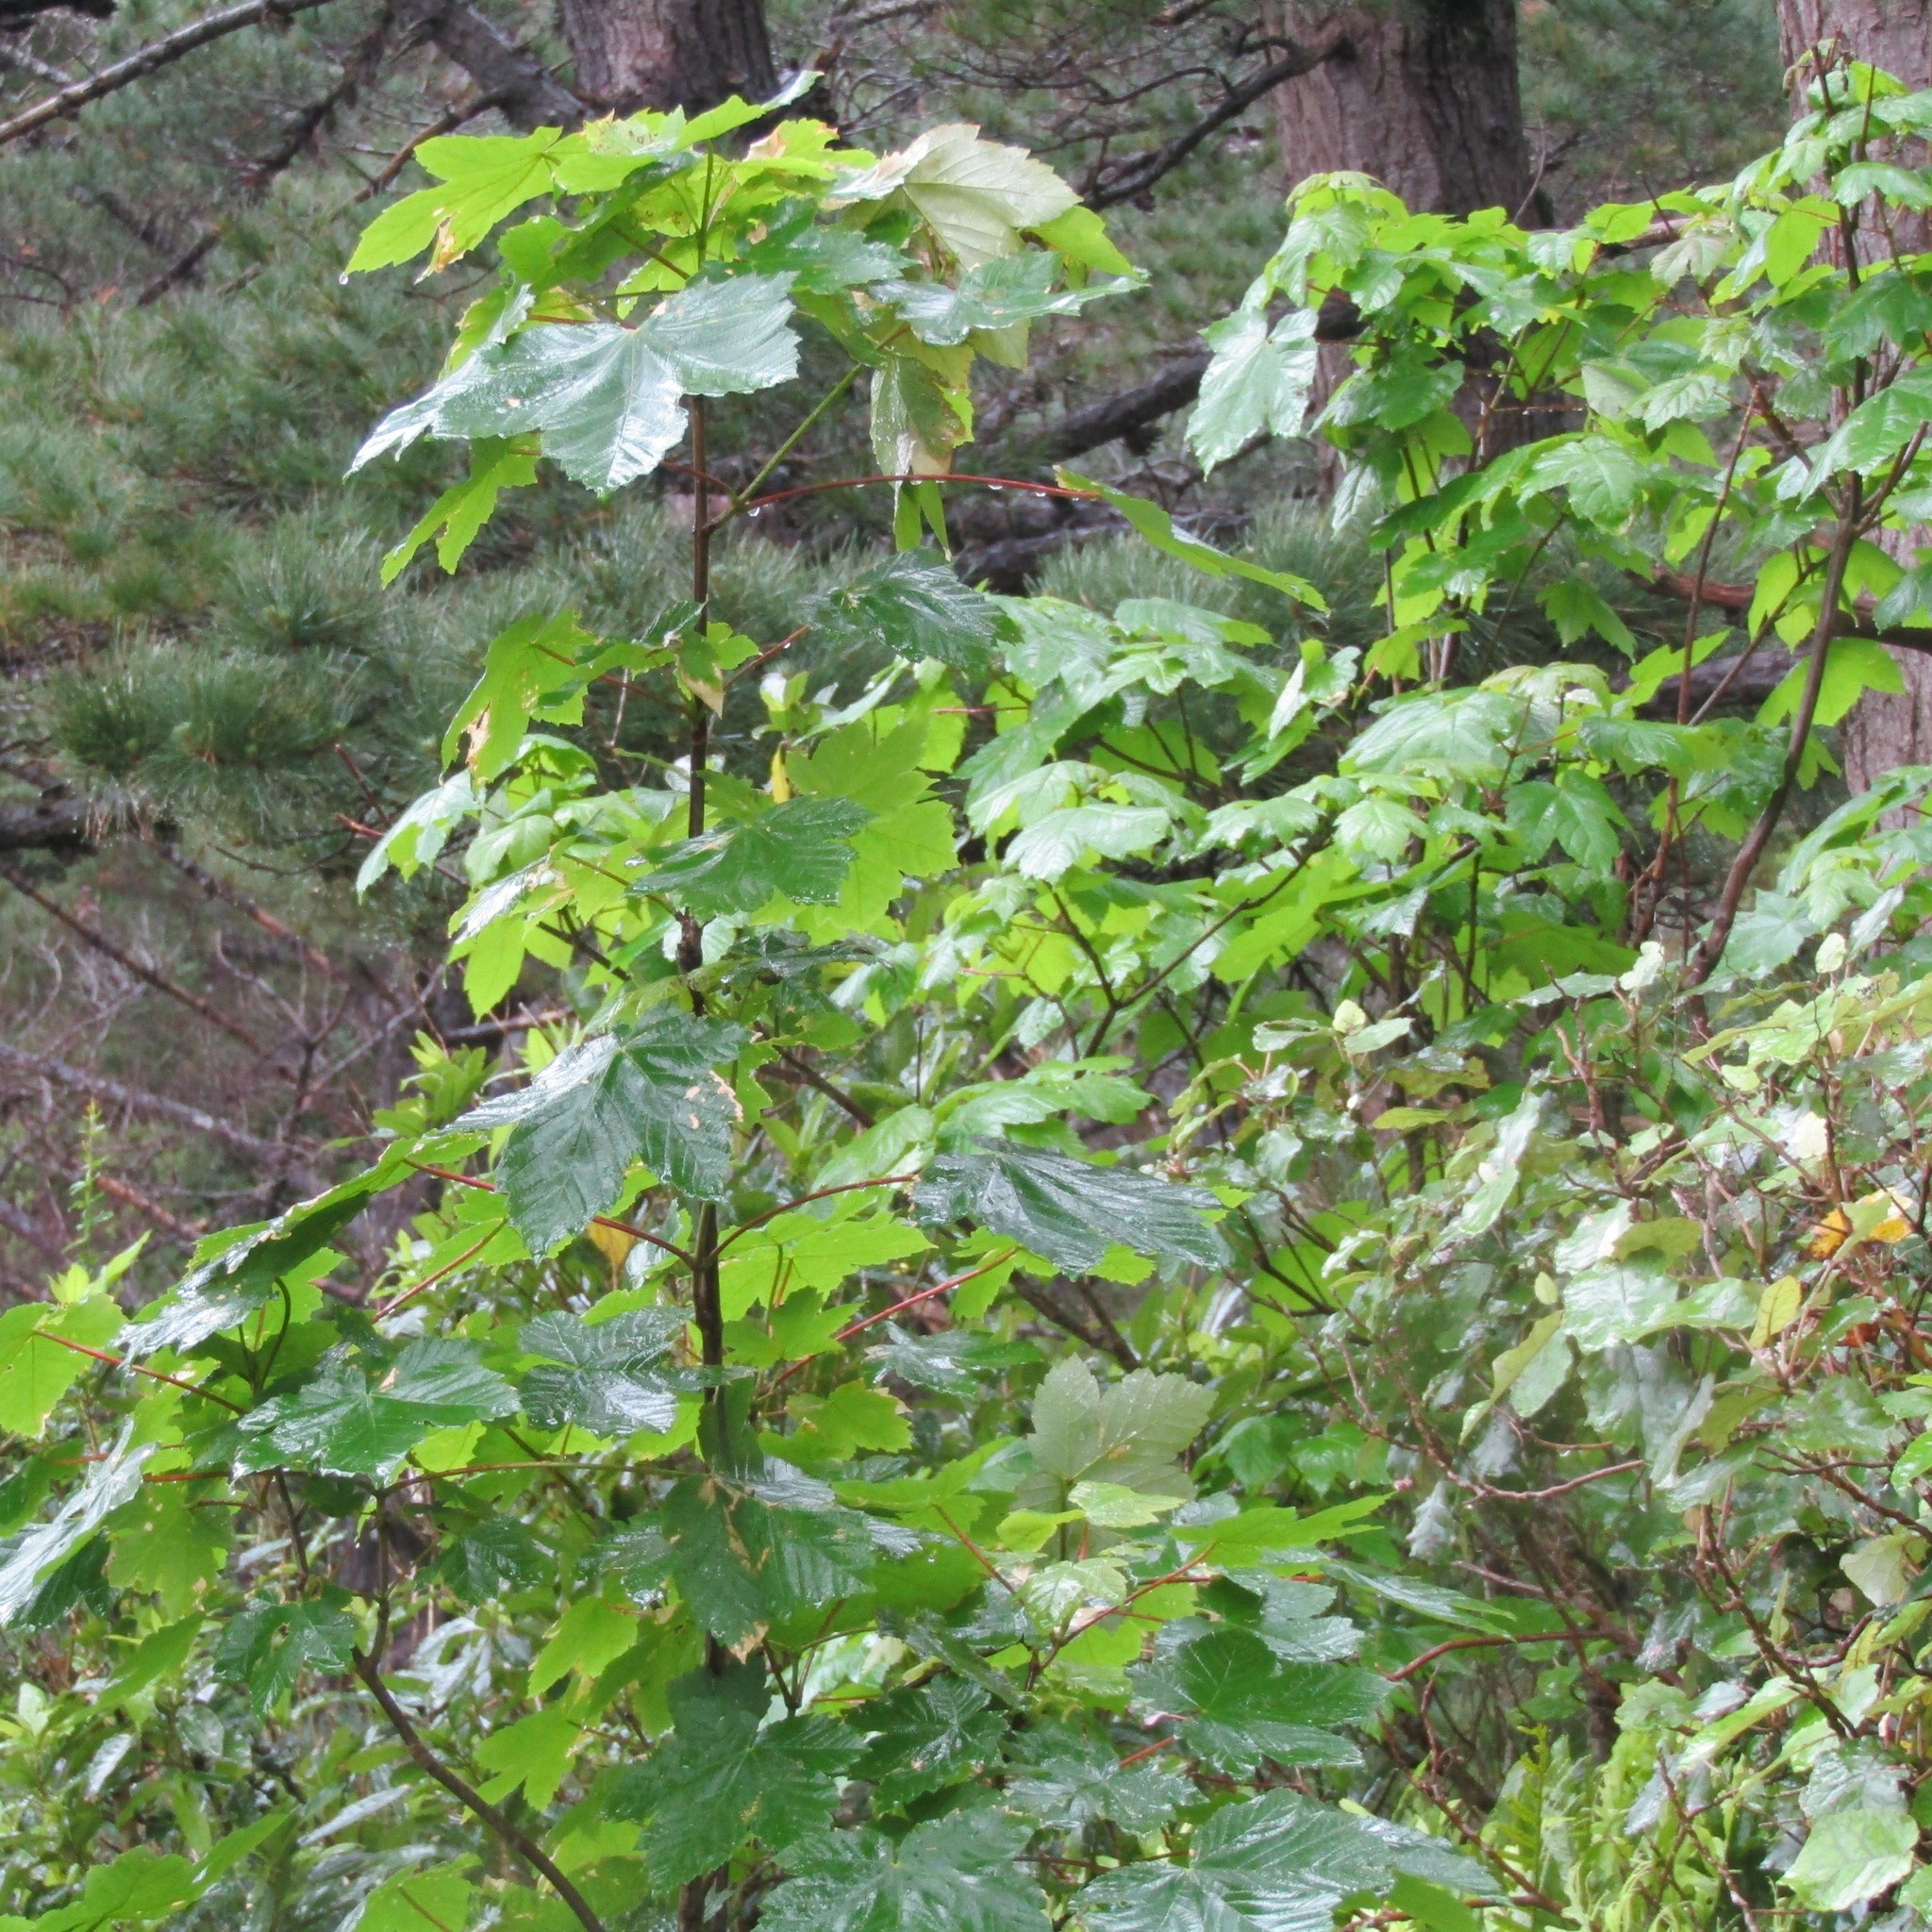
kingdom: Plantae
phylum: Tracheophyta
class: Magnoliopsida
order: Sapindales
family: Sapindaceae
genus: Acer
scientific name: Acer pseudoplatanus
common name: Sycamore
